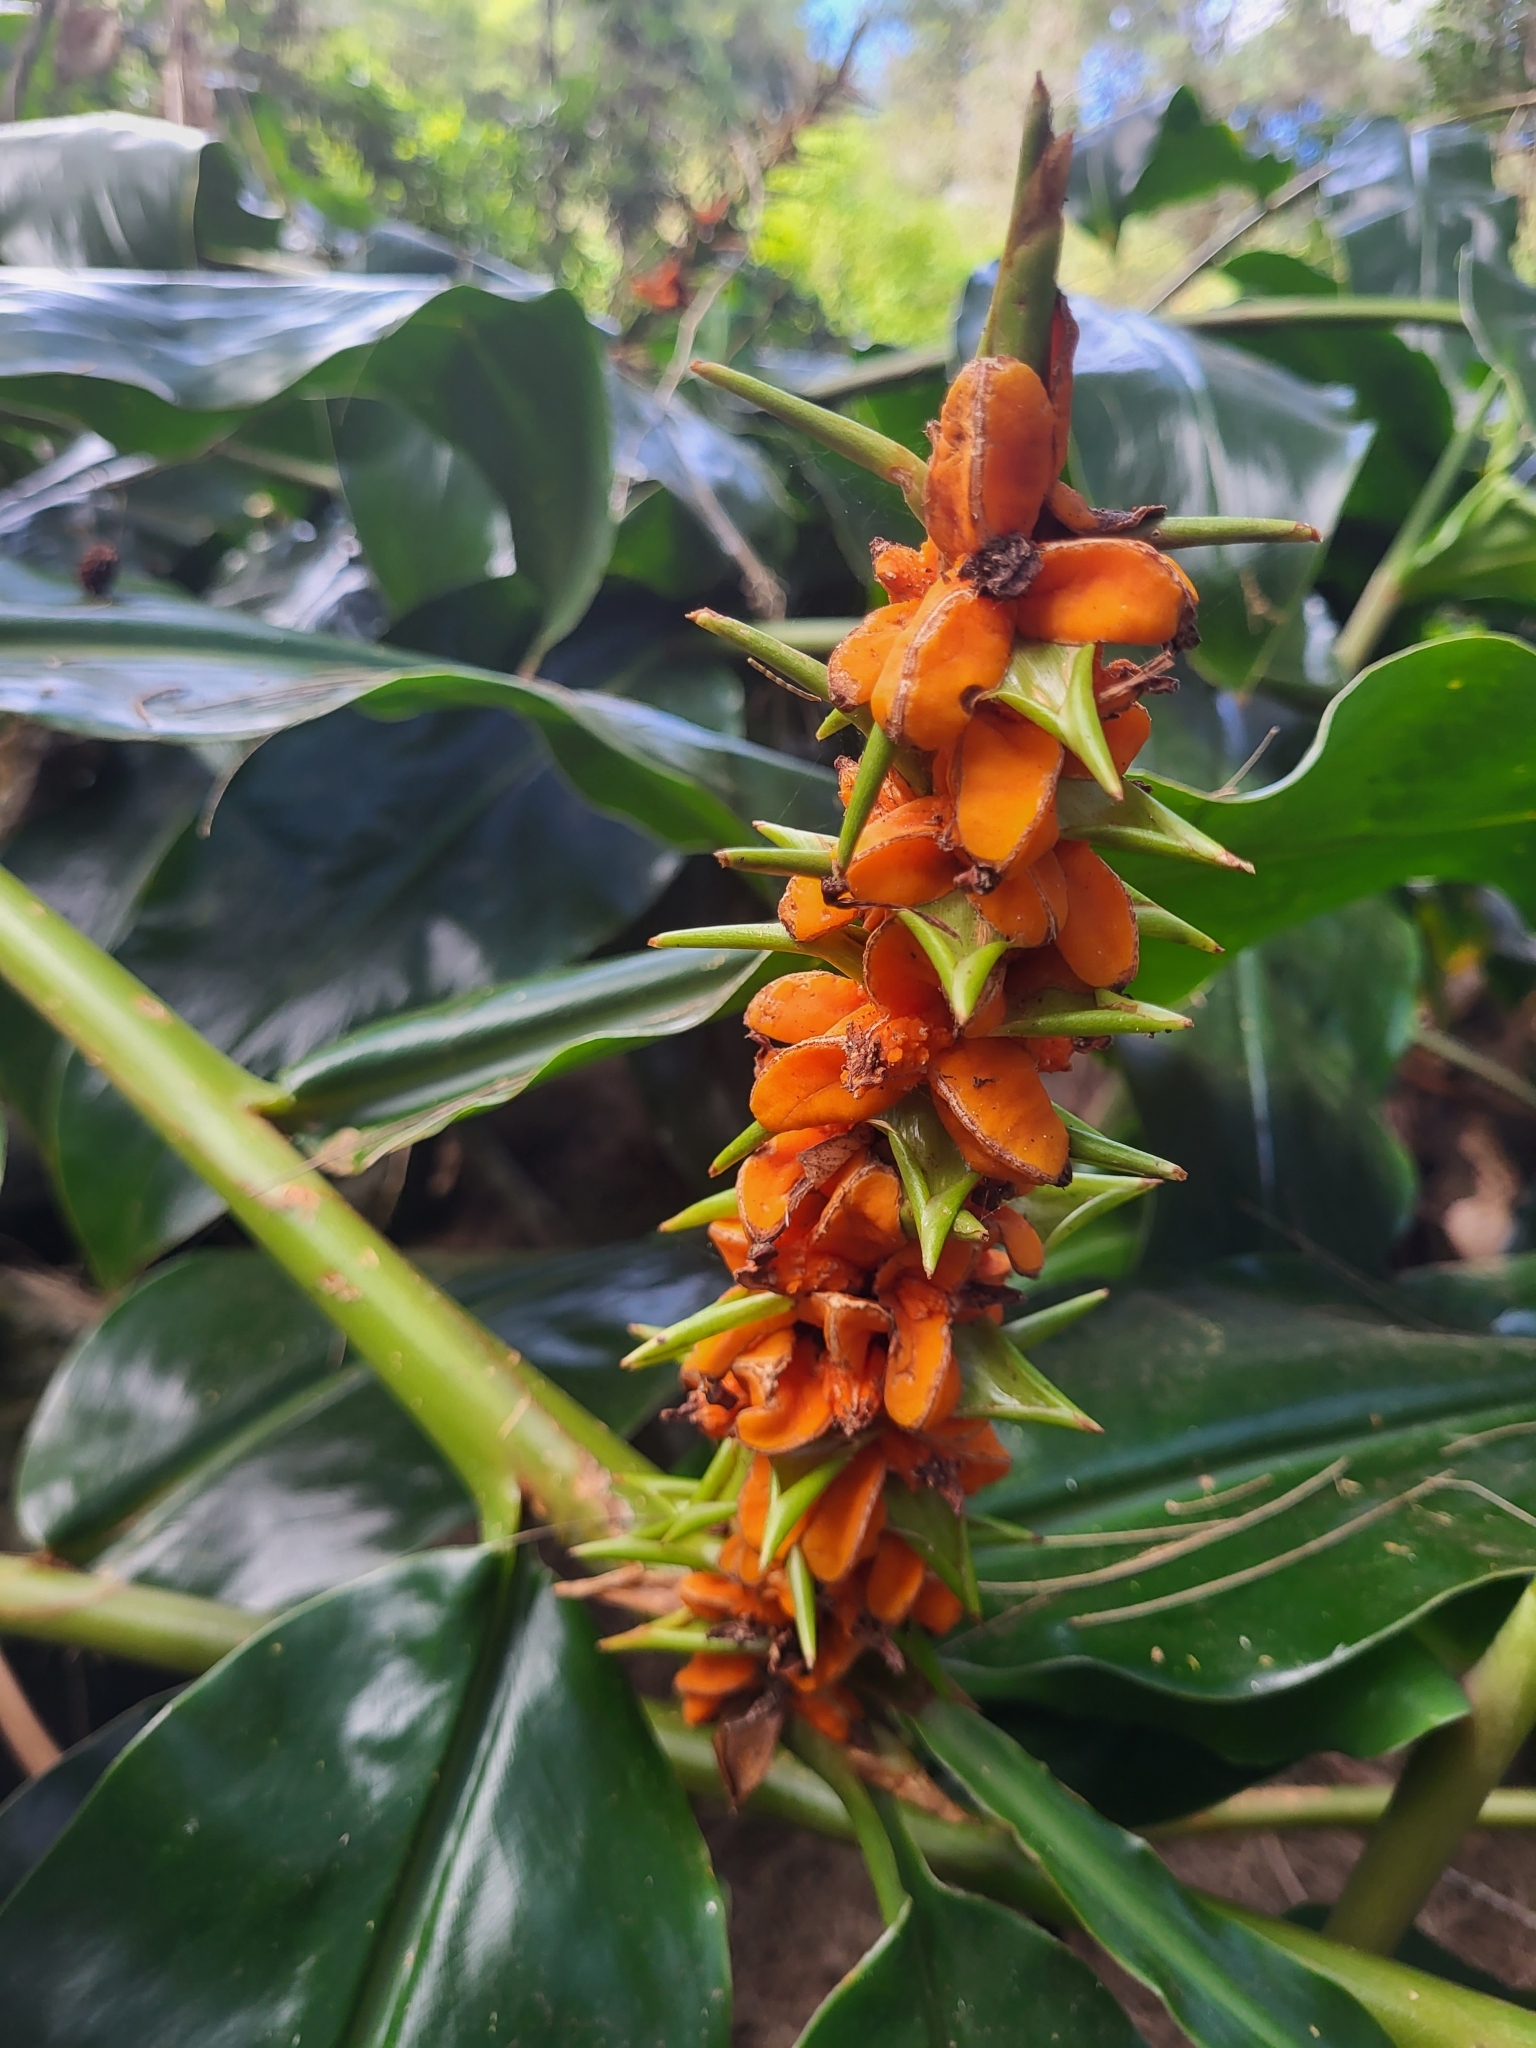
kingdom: Plantae
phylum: Tracheophyta
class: Liliopsida
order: Zingiberales
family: Zingiberaceae
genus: Hedychium
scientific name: Hedychium coccineum
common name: Red ginger-lily
